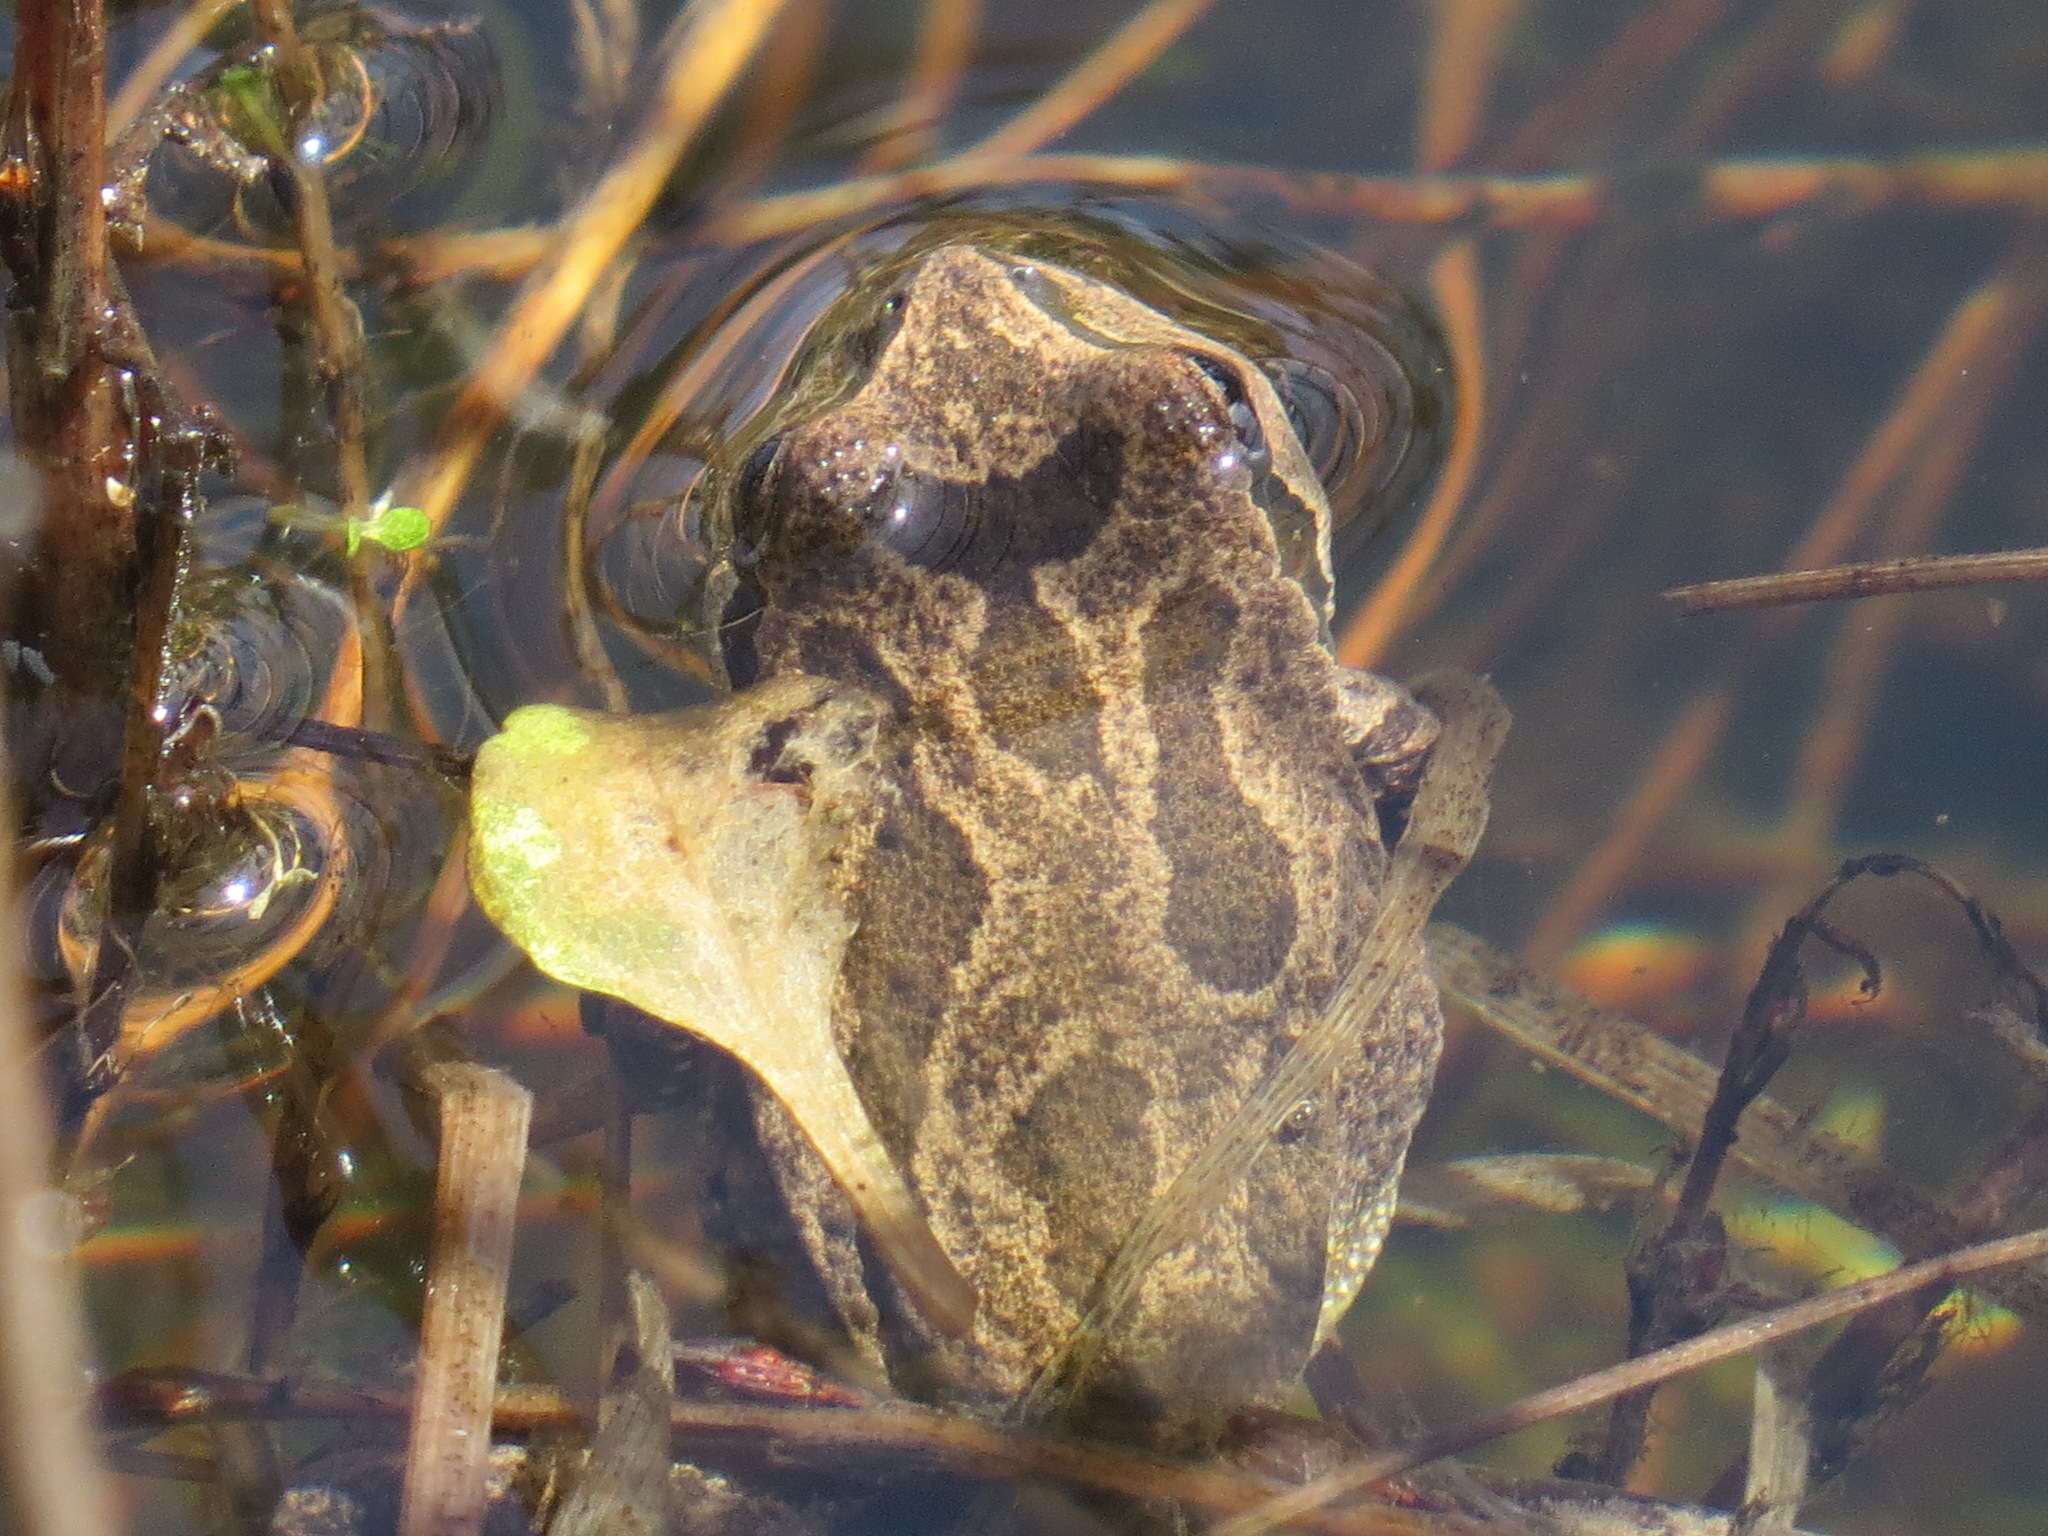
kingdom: Animalia
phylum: Chordata
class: Amphibia
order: Anura
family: Hylidae
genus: Pseudacris
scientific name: Pseudacris regilla
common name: Pacific chorus frog
